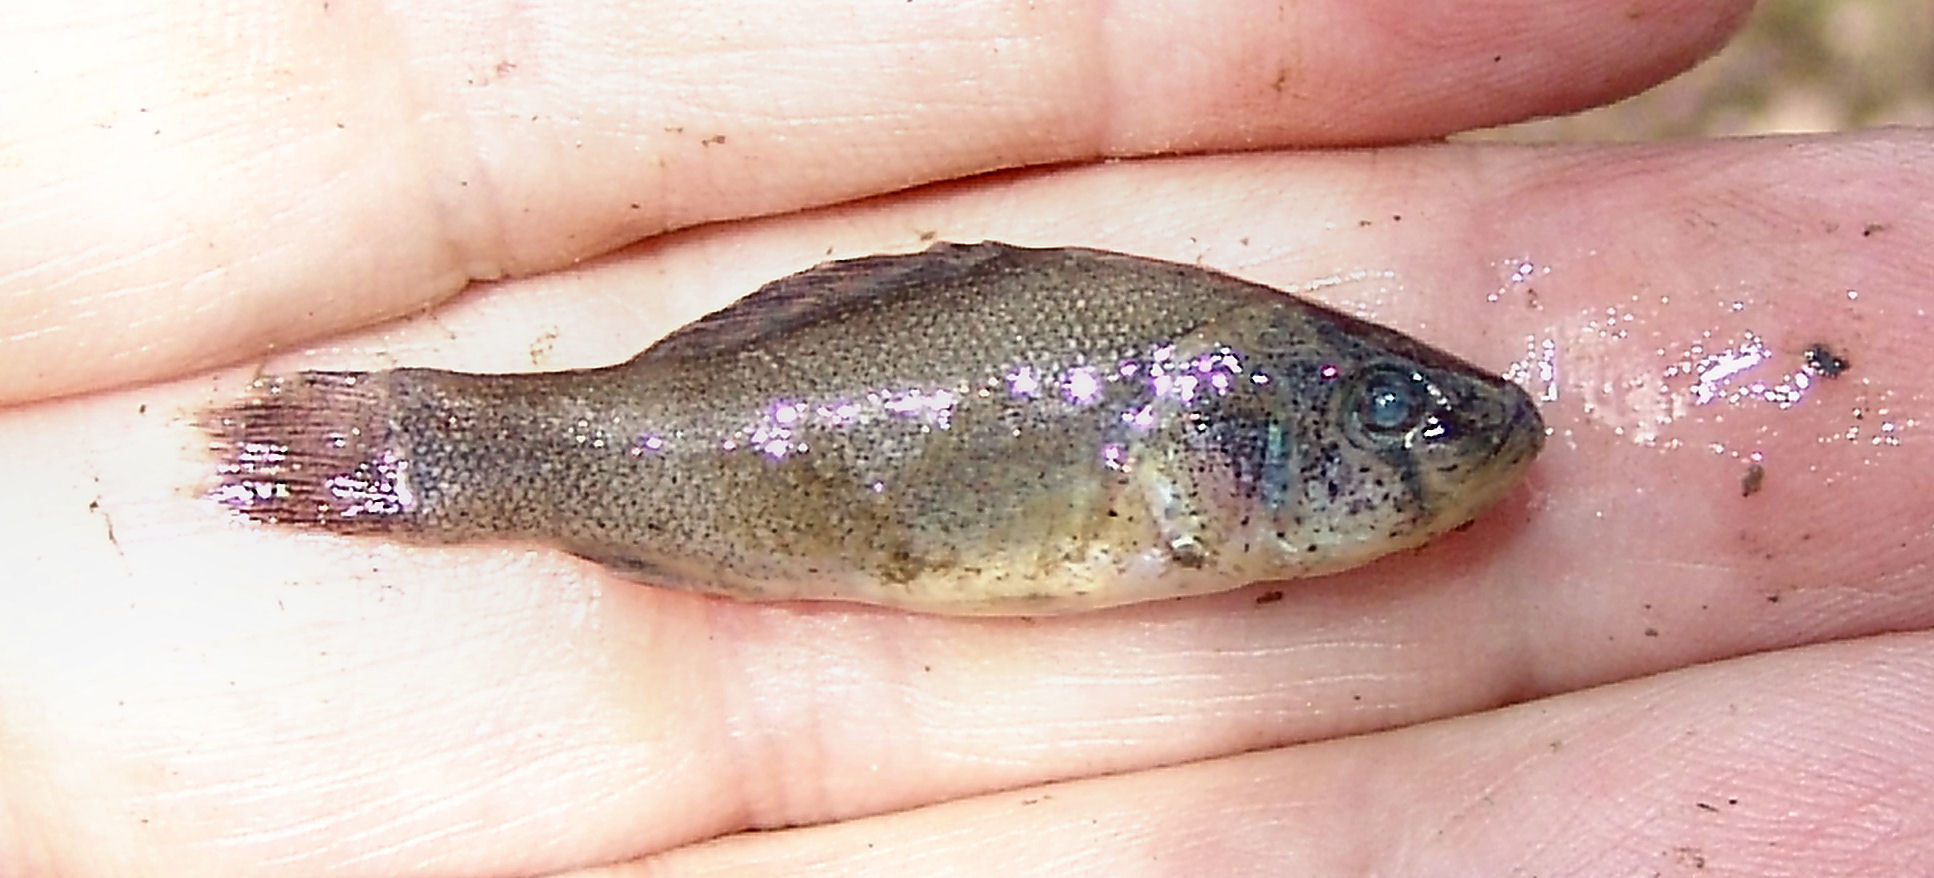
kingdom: Animalia
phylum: Chordata
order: Percopsiformes
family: Aphredoderidae
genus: Aphredoderus
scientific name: Aphredoderus sayanus
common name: Pirate perch
